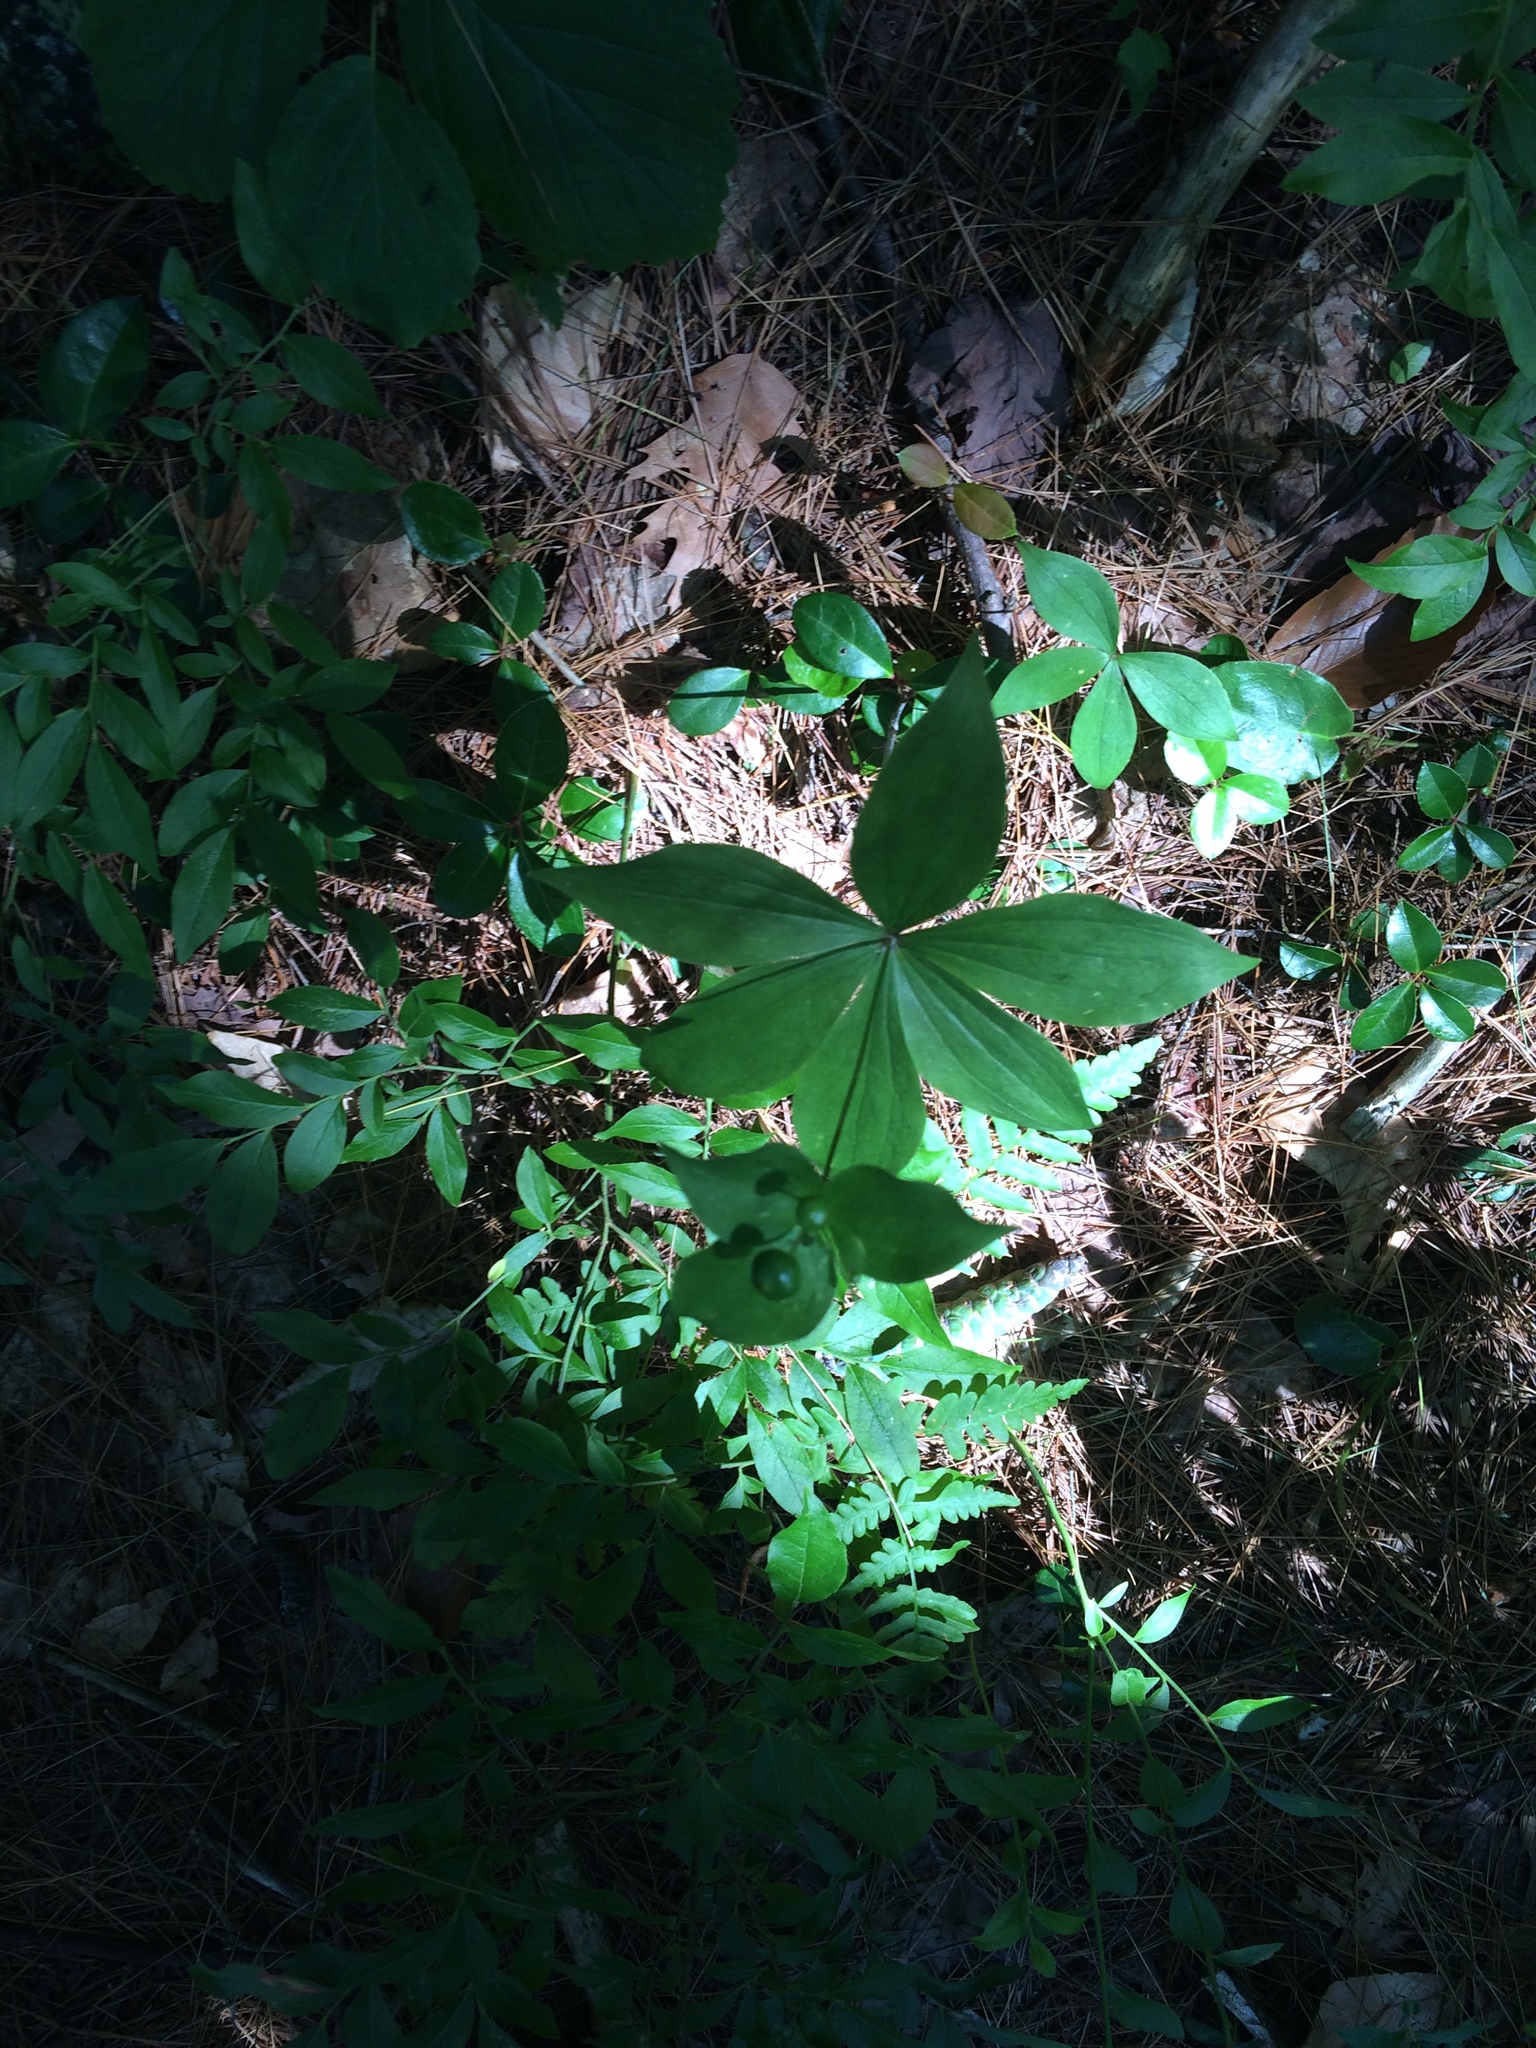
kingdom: Plantae
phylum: Tracheophyta
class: Liliopsida
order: Liliales
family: Liliaceae
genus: Medeola
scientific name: Medeola virginiana
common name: Indian cucumber-root
